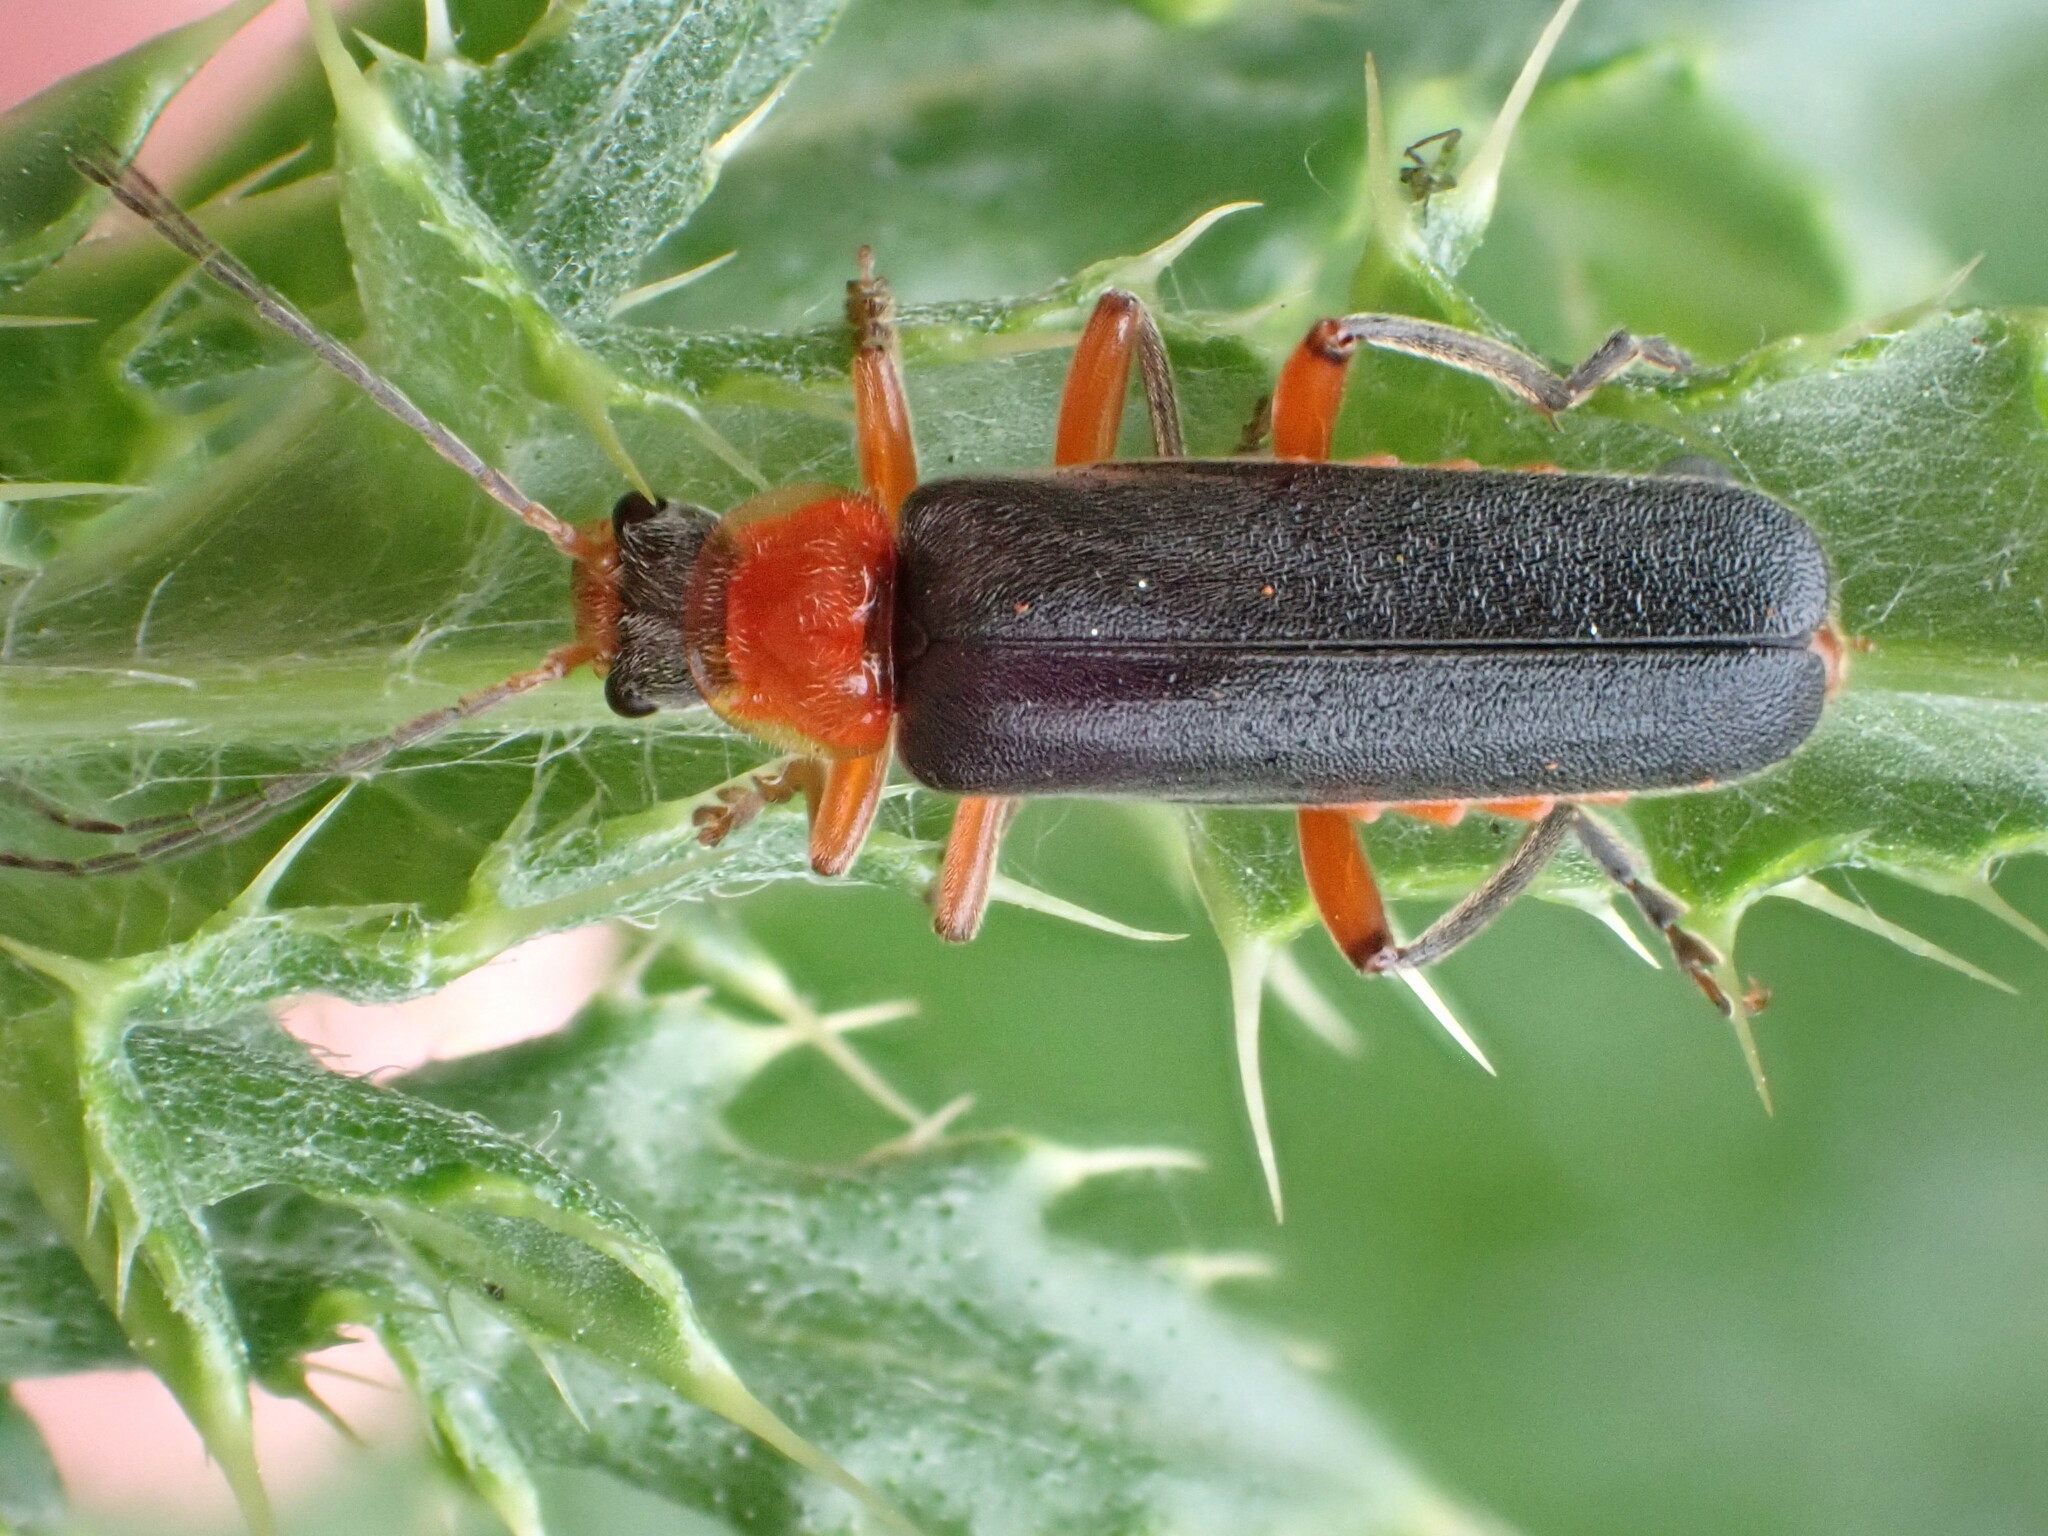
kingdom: Animalia
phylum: Arthropoda
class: Insecta
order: Coleoptera
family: Cantharidae
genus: Cantharis
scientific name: Cantharis pellucida
